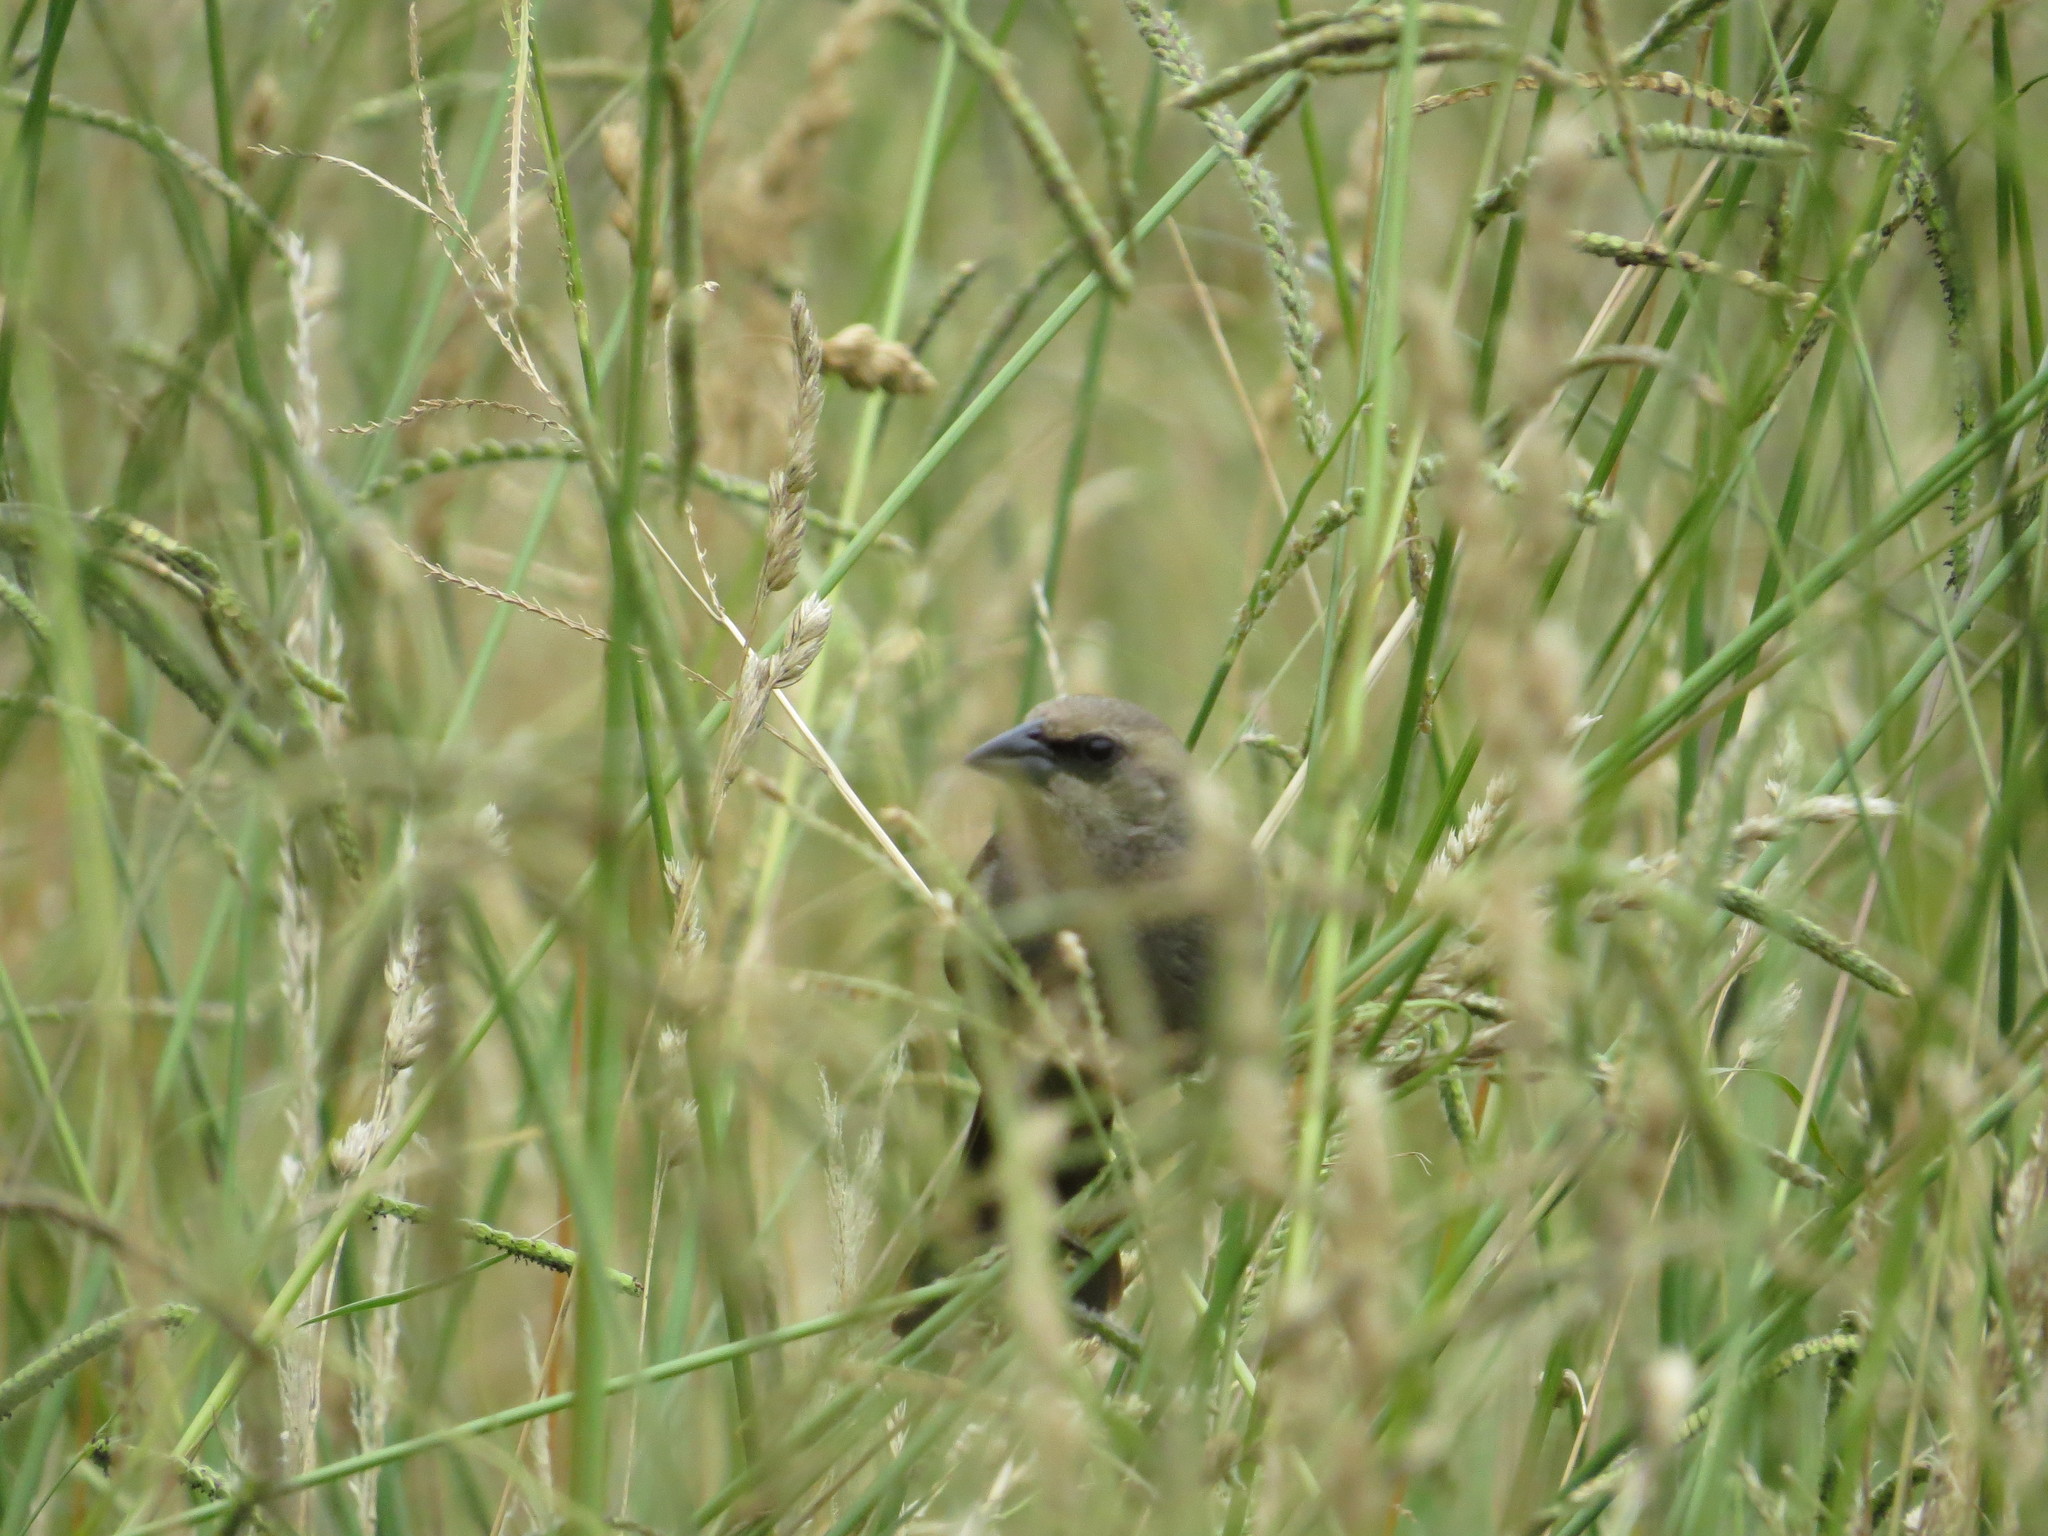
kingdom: Animalia
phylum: Chordata
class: Aves
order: Passeriformes
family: Icteridae
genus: Agelaioides
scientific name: Agelaioides badius
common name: Baywing
